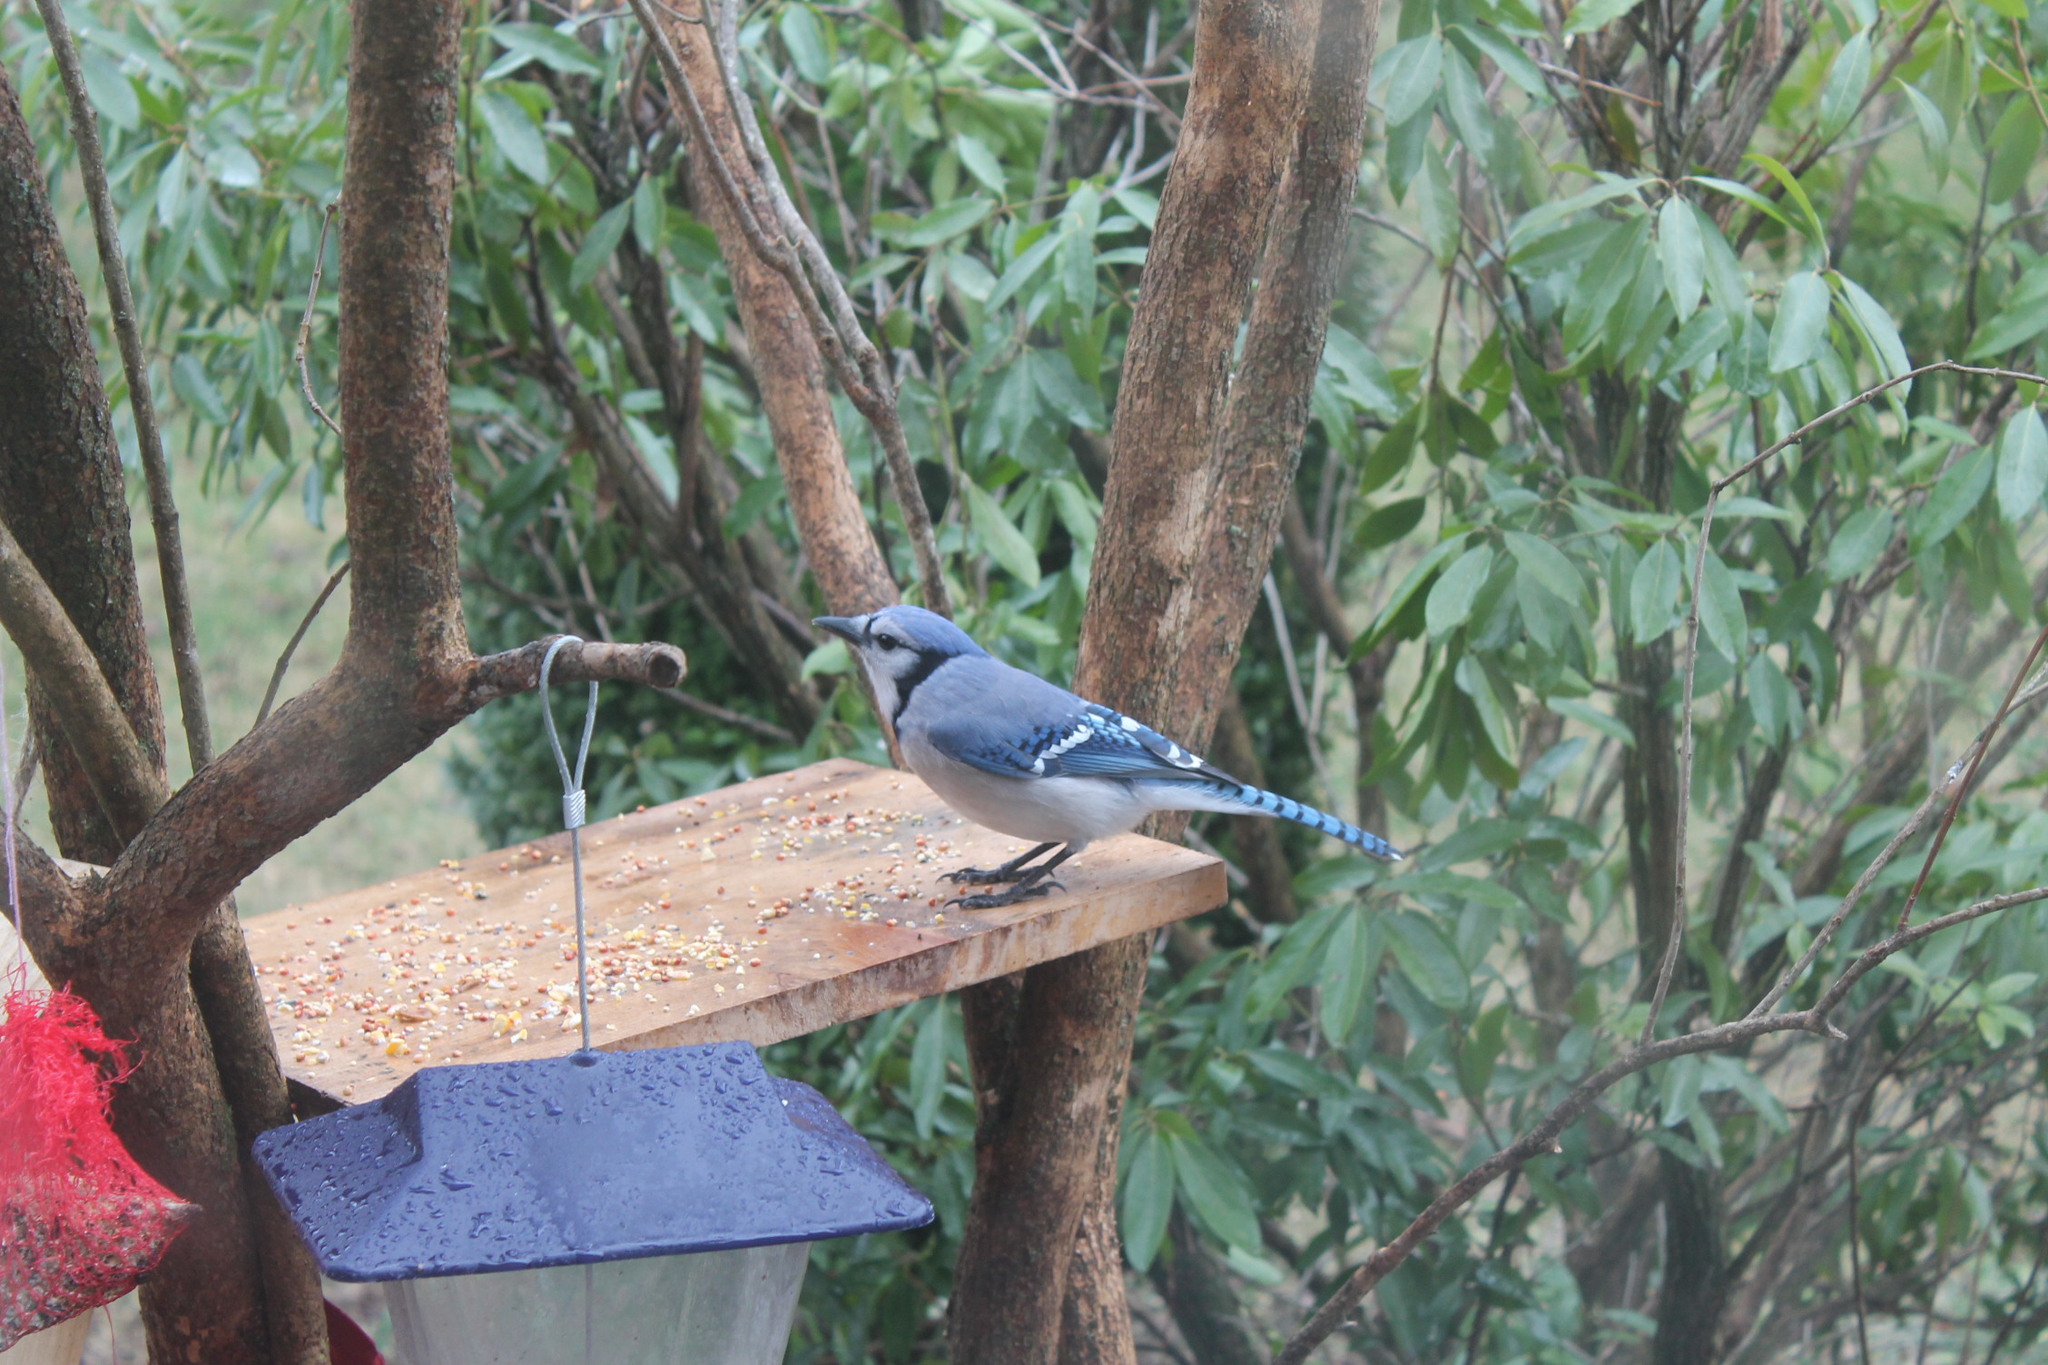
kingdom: Animalia
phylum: Chordata
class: Aves
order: Passeriformes
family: Corvidae
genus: Cyanocitta
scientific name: Cyanocitta cristata
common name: Blue jay
